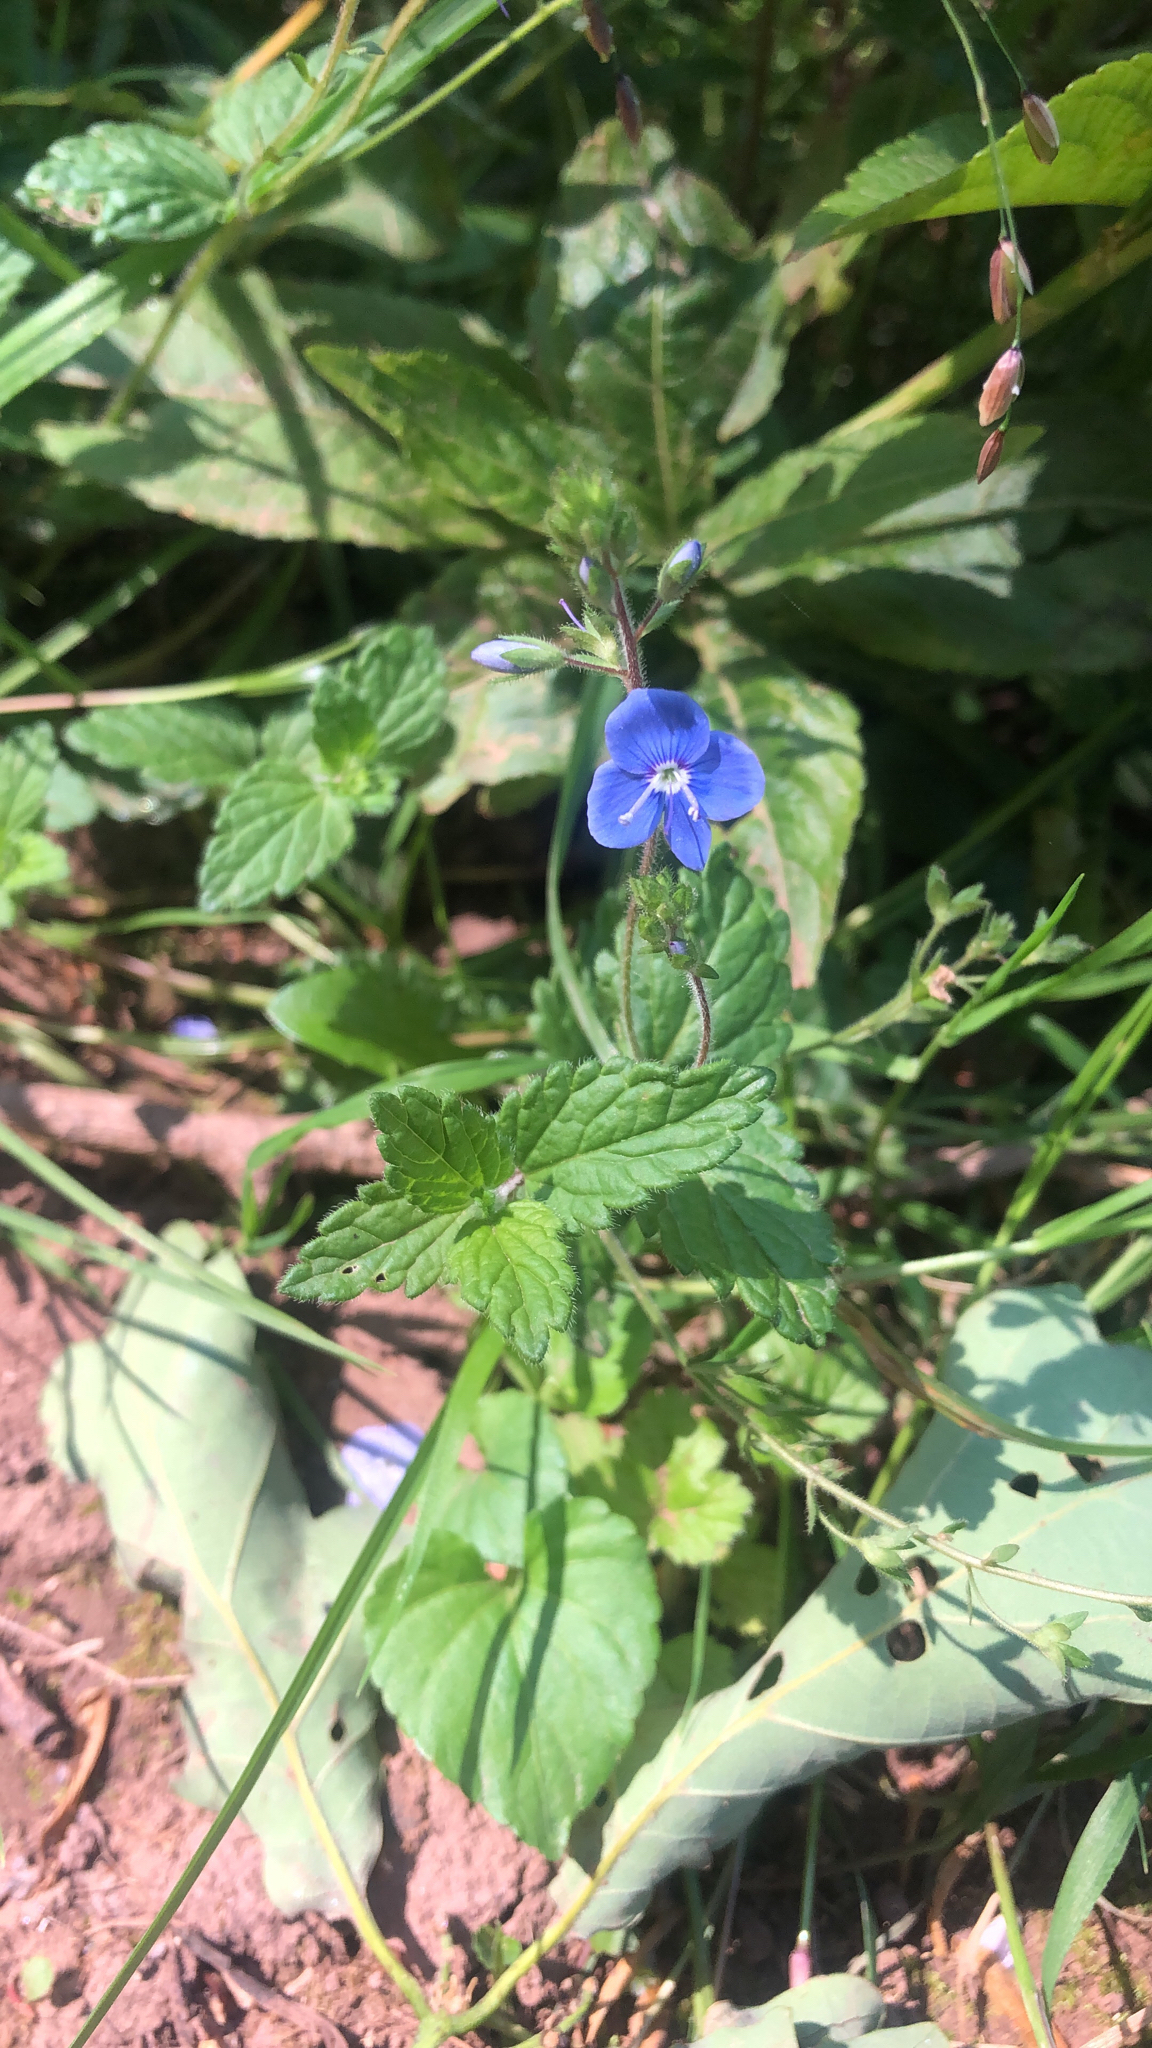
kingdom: Plantae
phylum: Tracheophyta
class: Magnoliopsida
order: Lamiales
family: Plantaginaceae
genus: Veronica
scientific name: Veronica chamaedrys
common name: Germander speedwell
